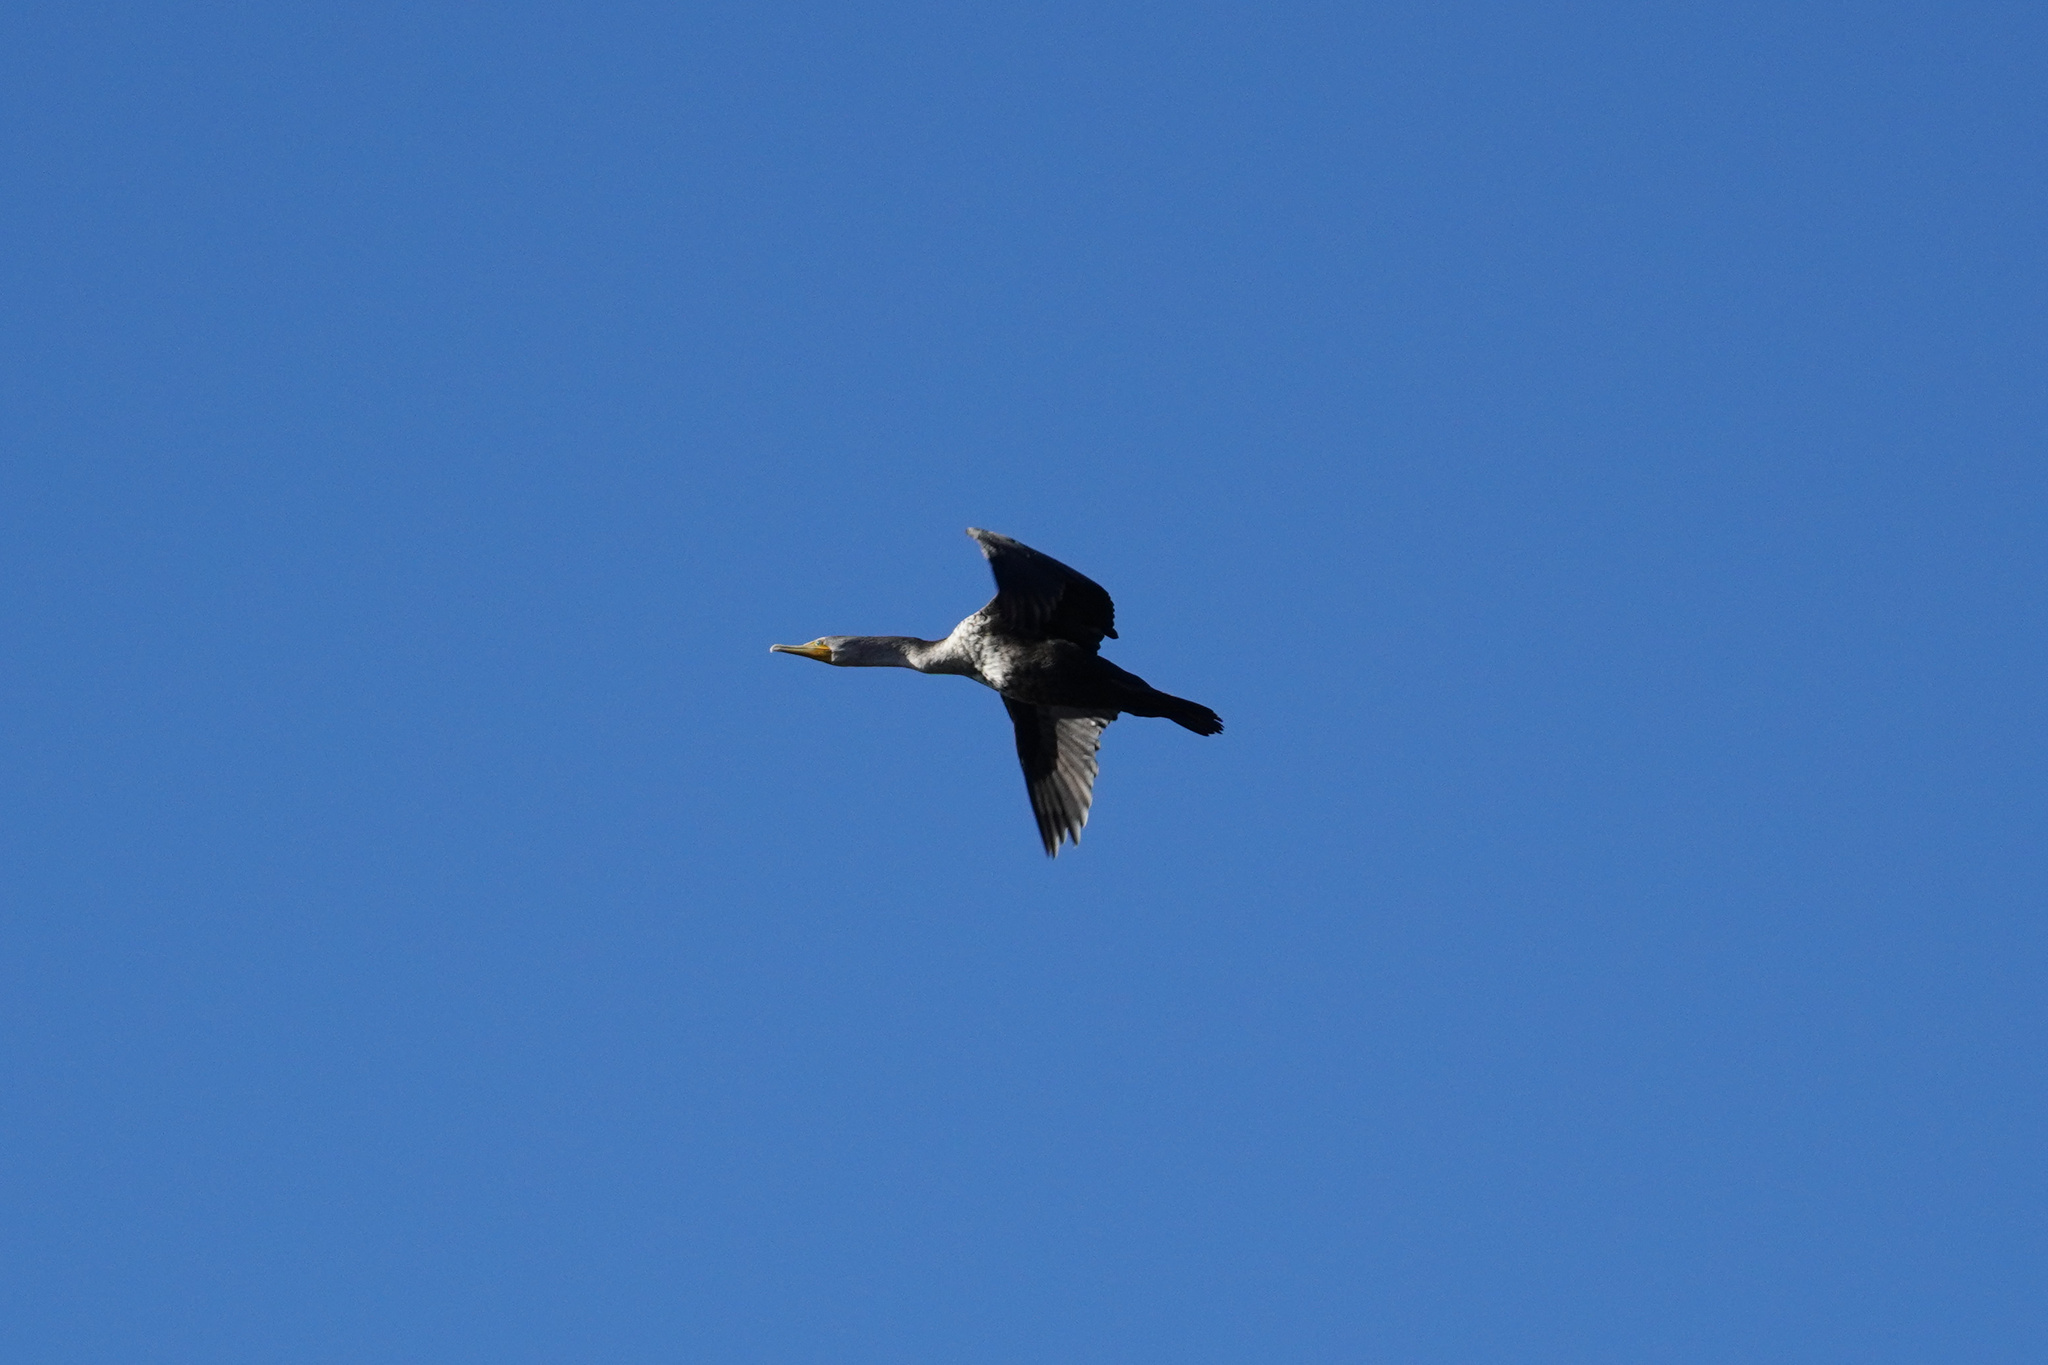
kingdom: Animalia
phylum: Chordata
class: Aves
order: Suliformes
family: Phalacrocoracidae
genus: Phalacrocorax
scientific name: Phalacrocorax auritus
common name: Double-crested cormorant
